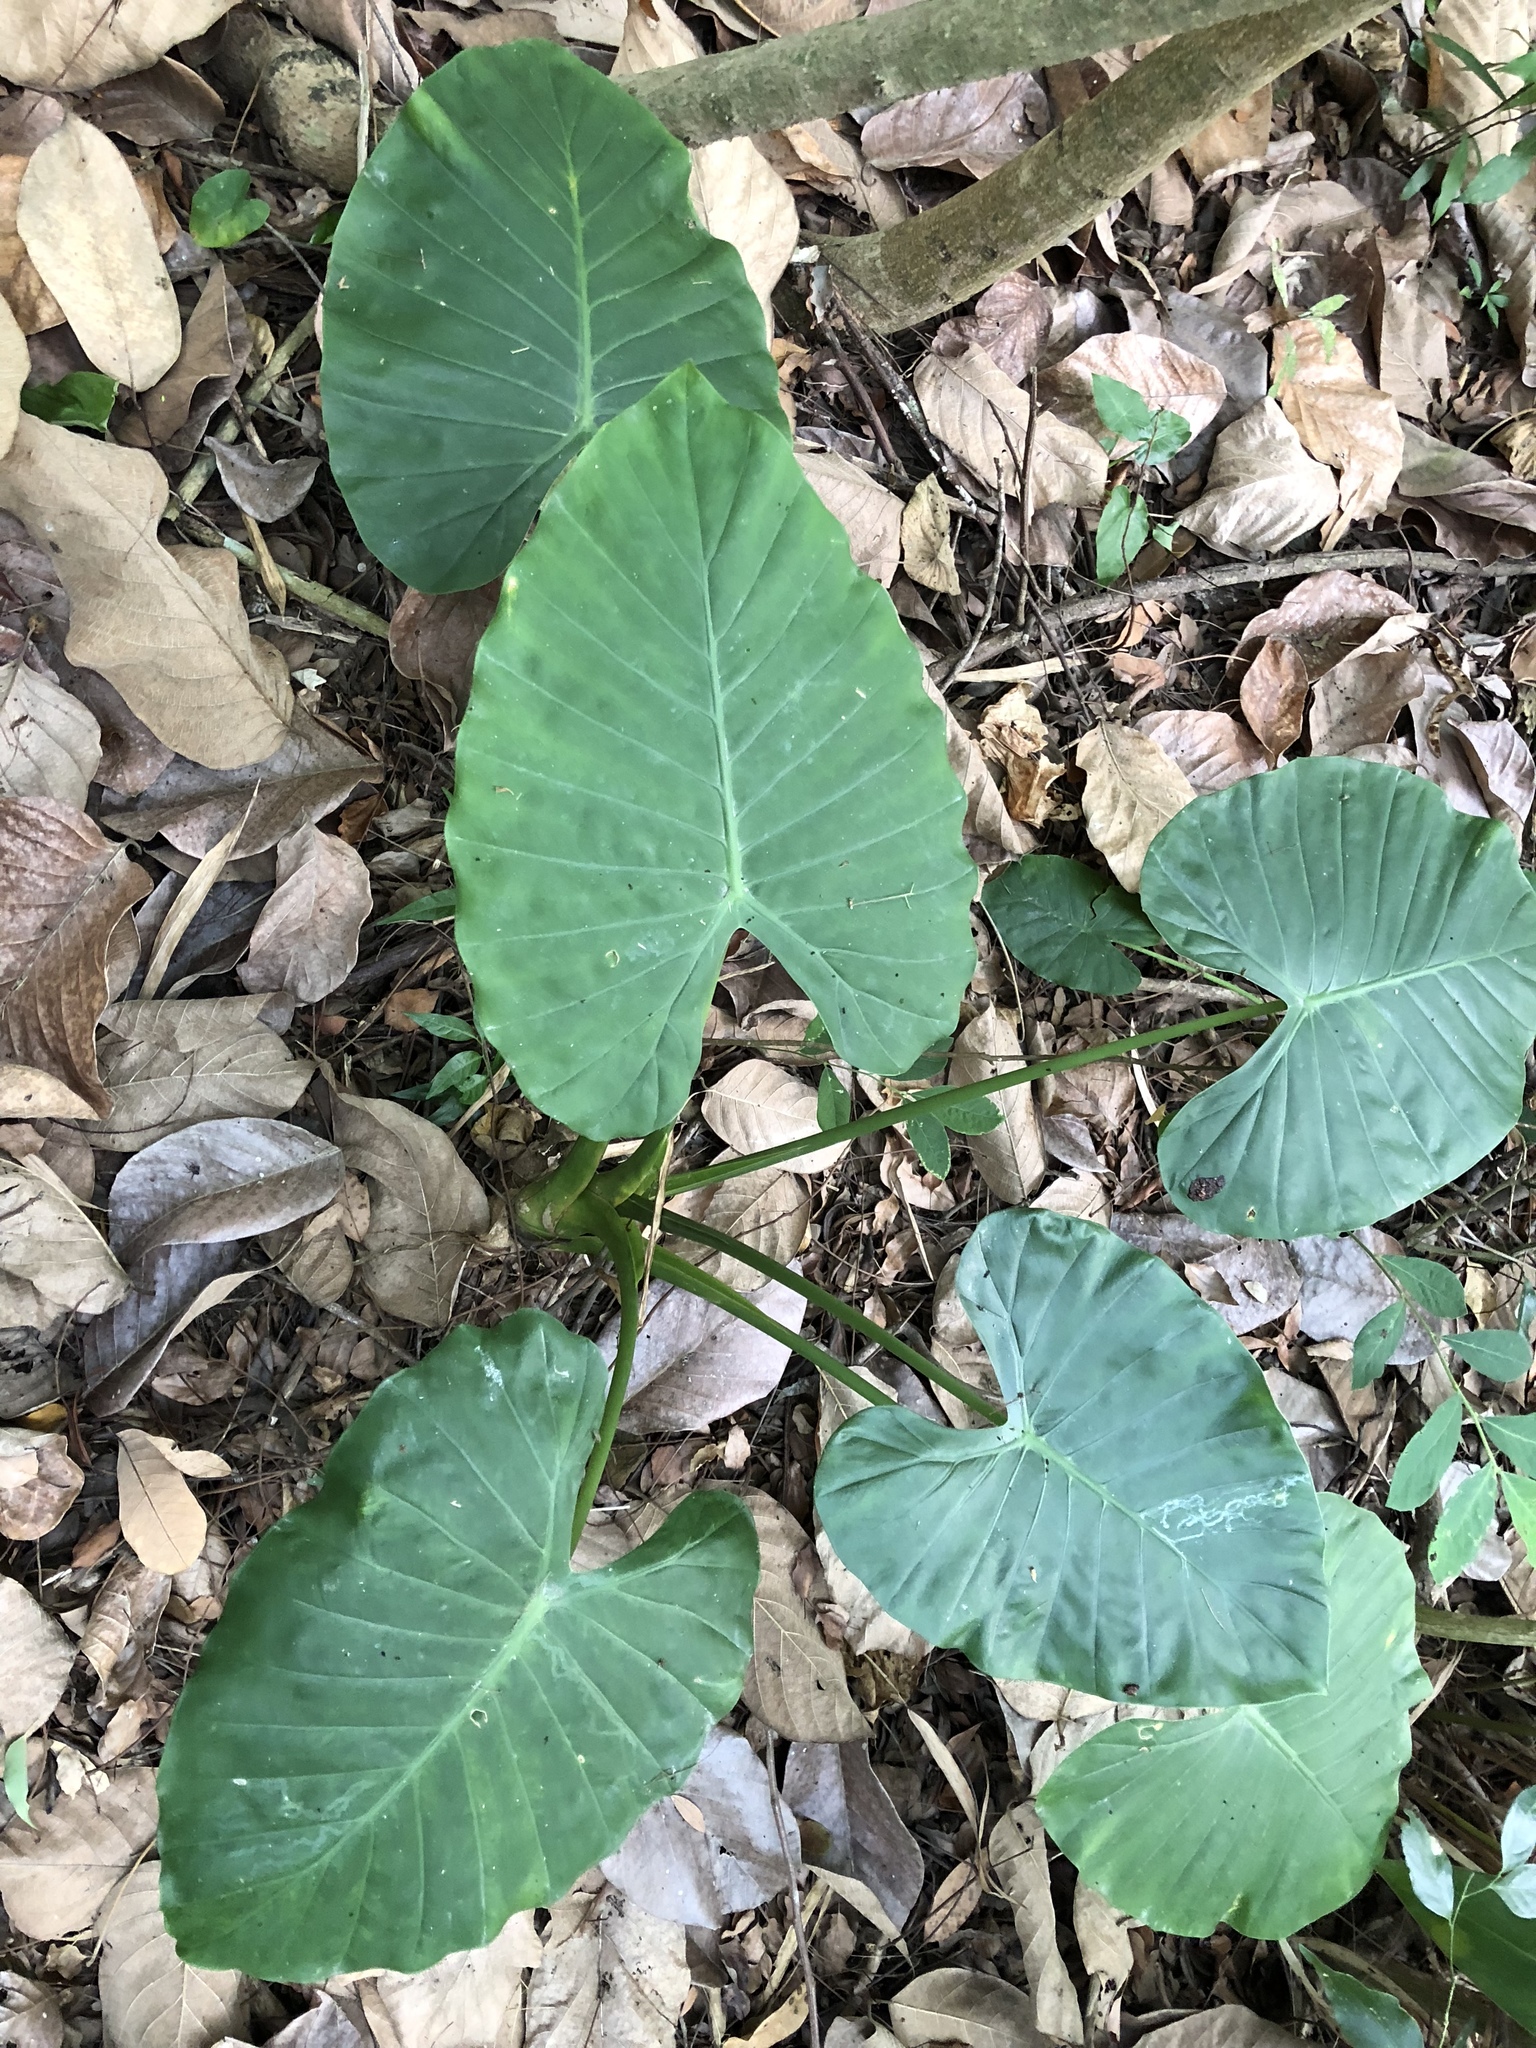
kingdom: Plantae
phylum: Tracheophyta
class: Liliopsida
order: Alismatales
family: Araceae
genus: Alocasia
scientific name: Alocasia odora
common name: Asian taro
